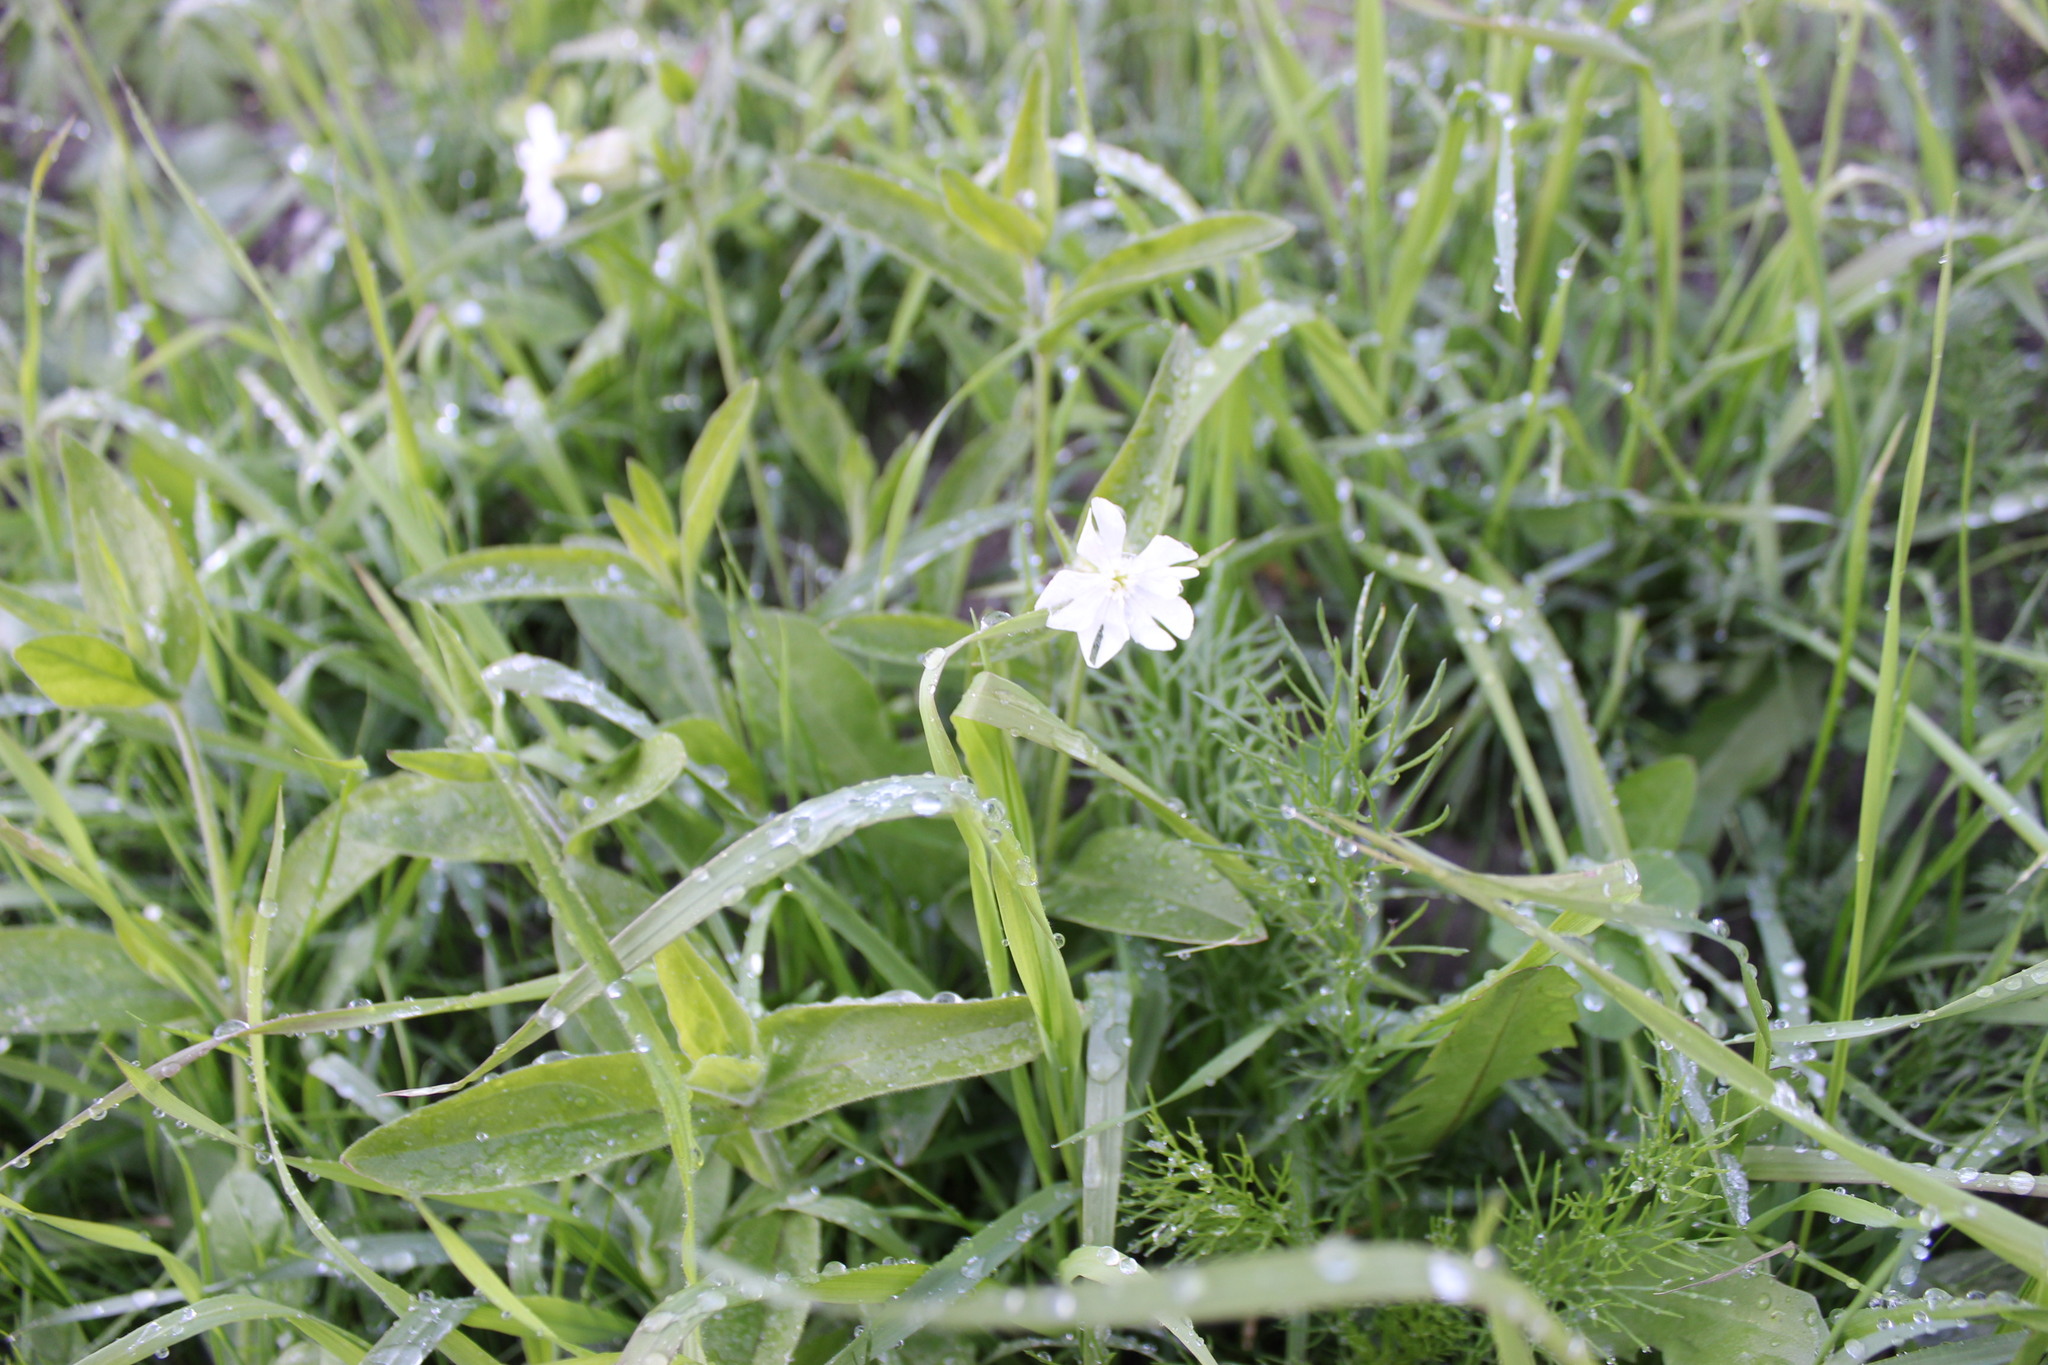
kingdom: Plantae
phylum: Tracheophyta
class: Magnoliopsida
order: Caryophyllales
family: Caryophyllaceae
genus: Silene
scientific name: Silene latifolia
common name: White campion
